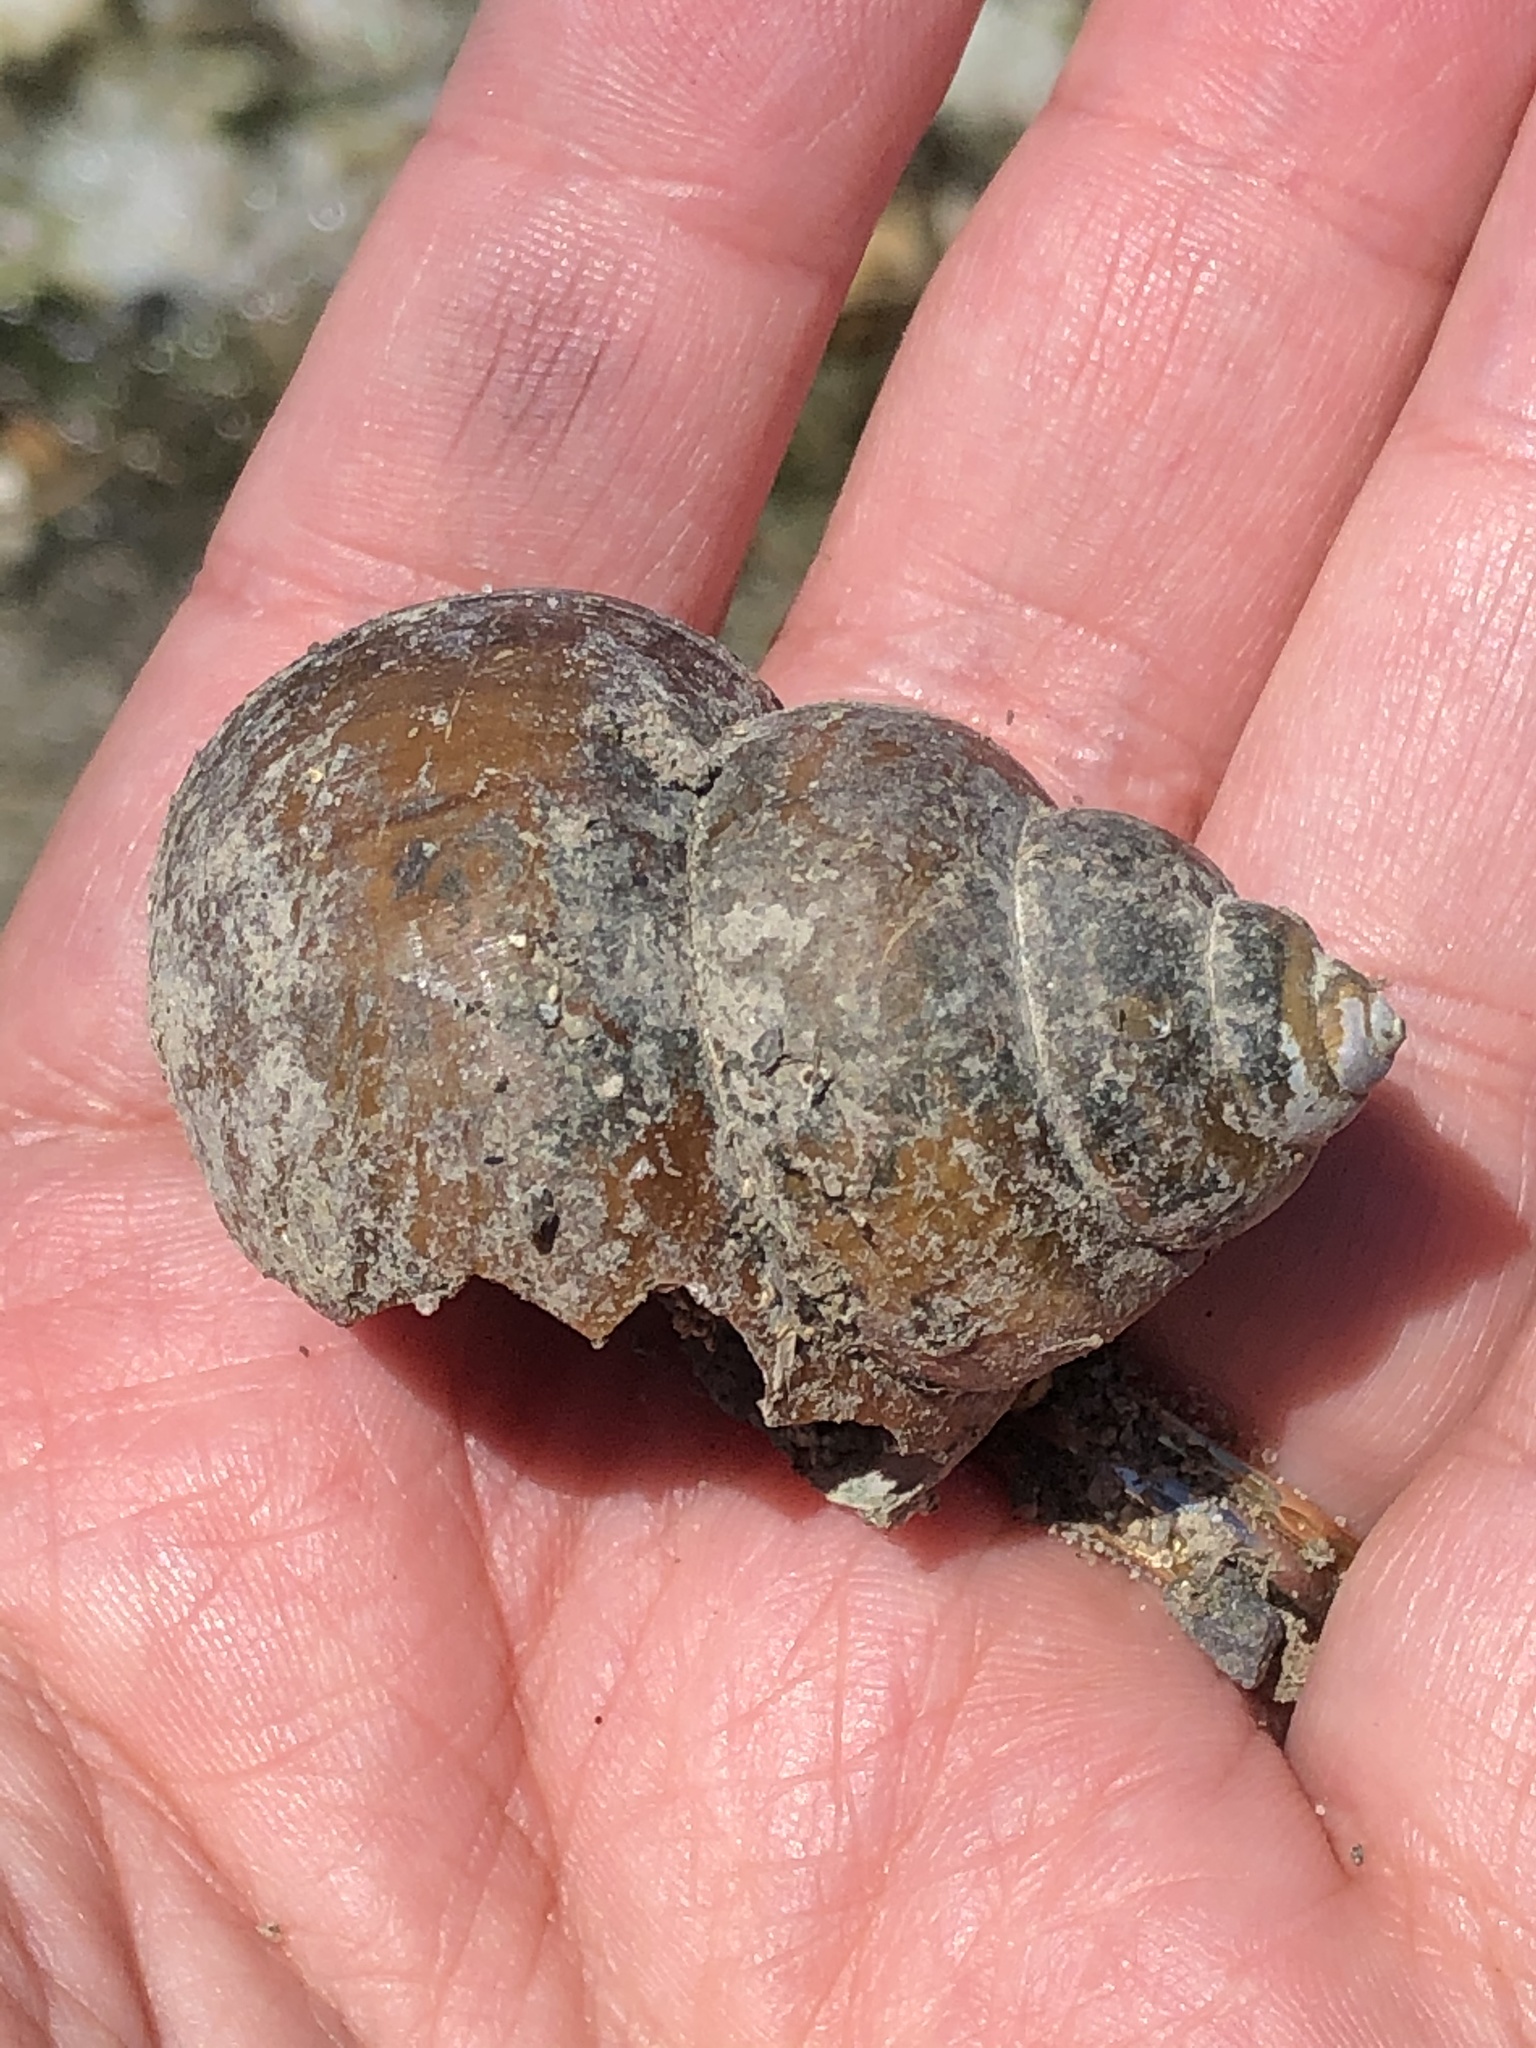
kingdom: Animalia
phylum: Mollusca
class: Gastropoda
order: Architaenioglossa
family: Viviparidae
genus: Cipangopaludina
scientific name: Cipangopaludina chinensis
